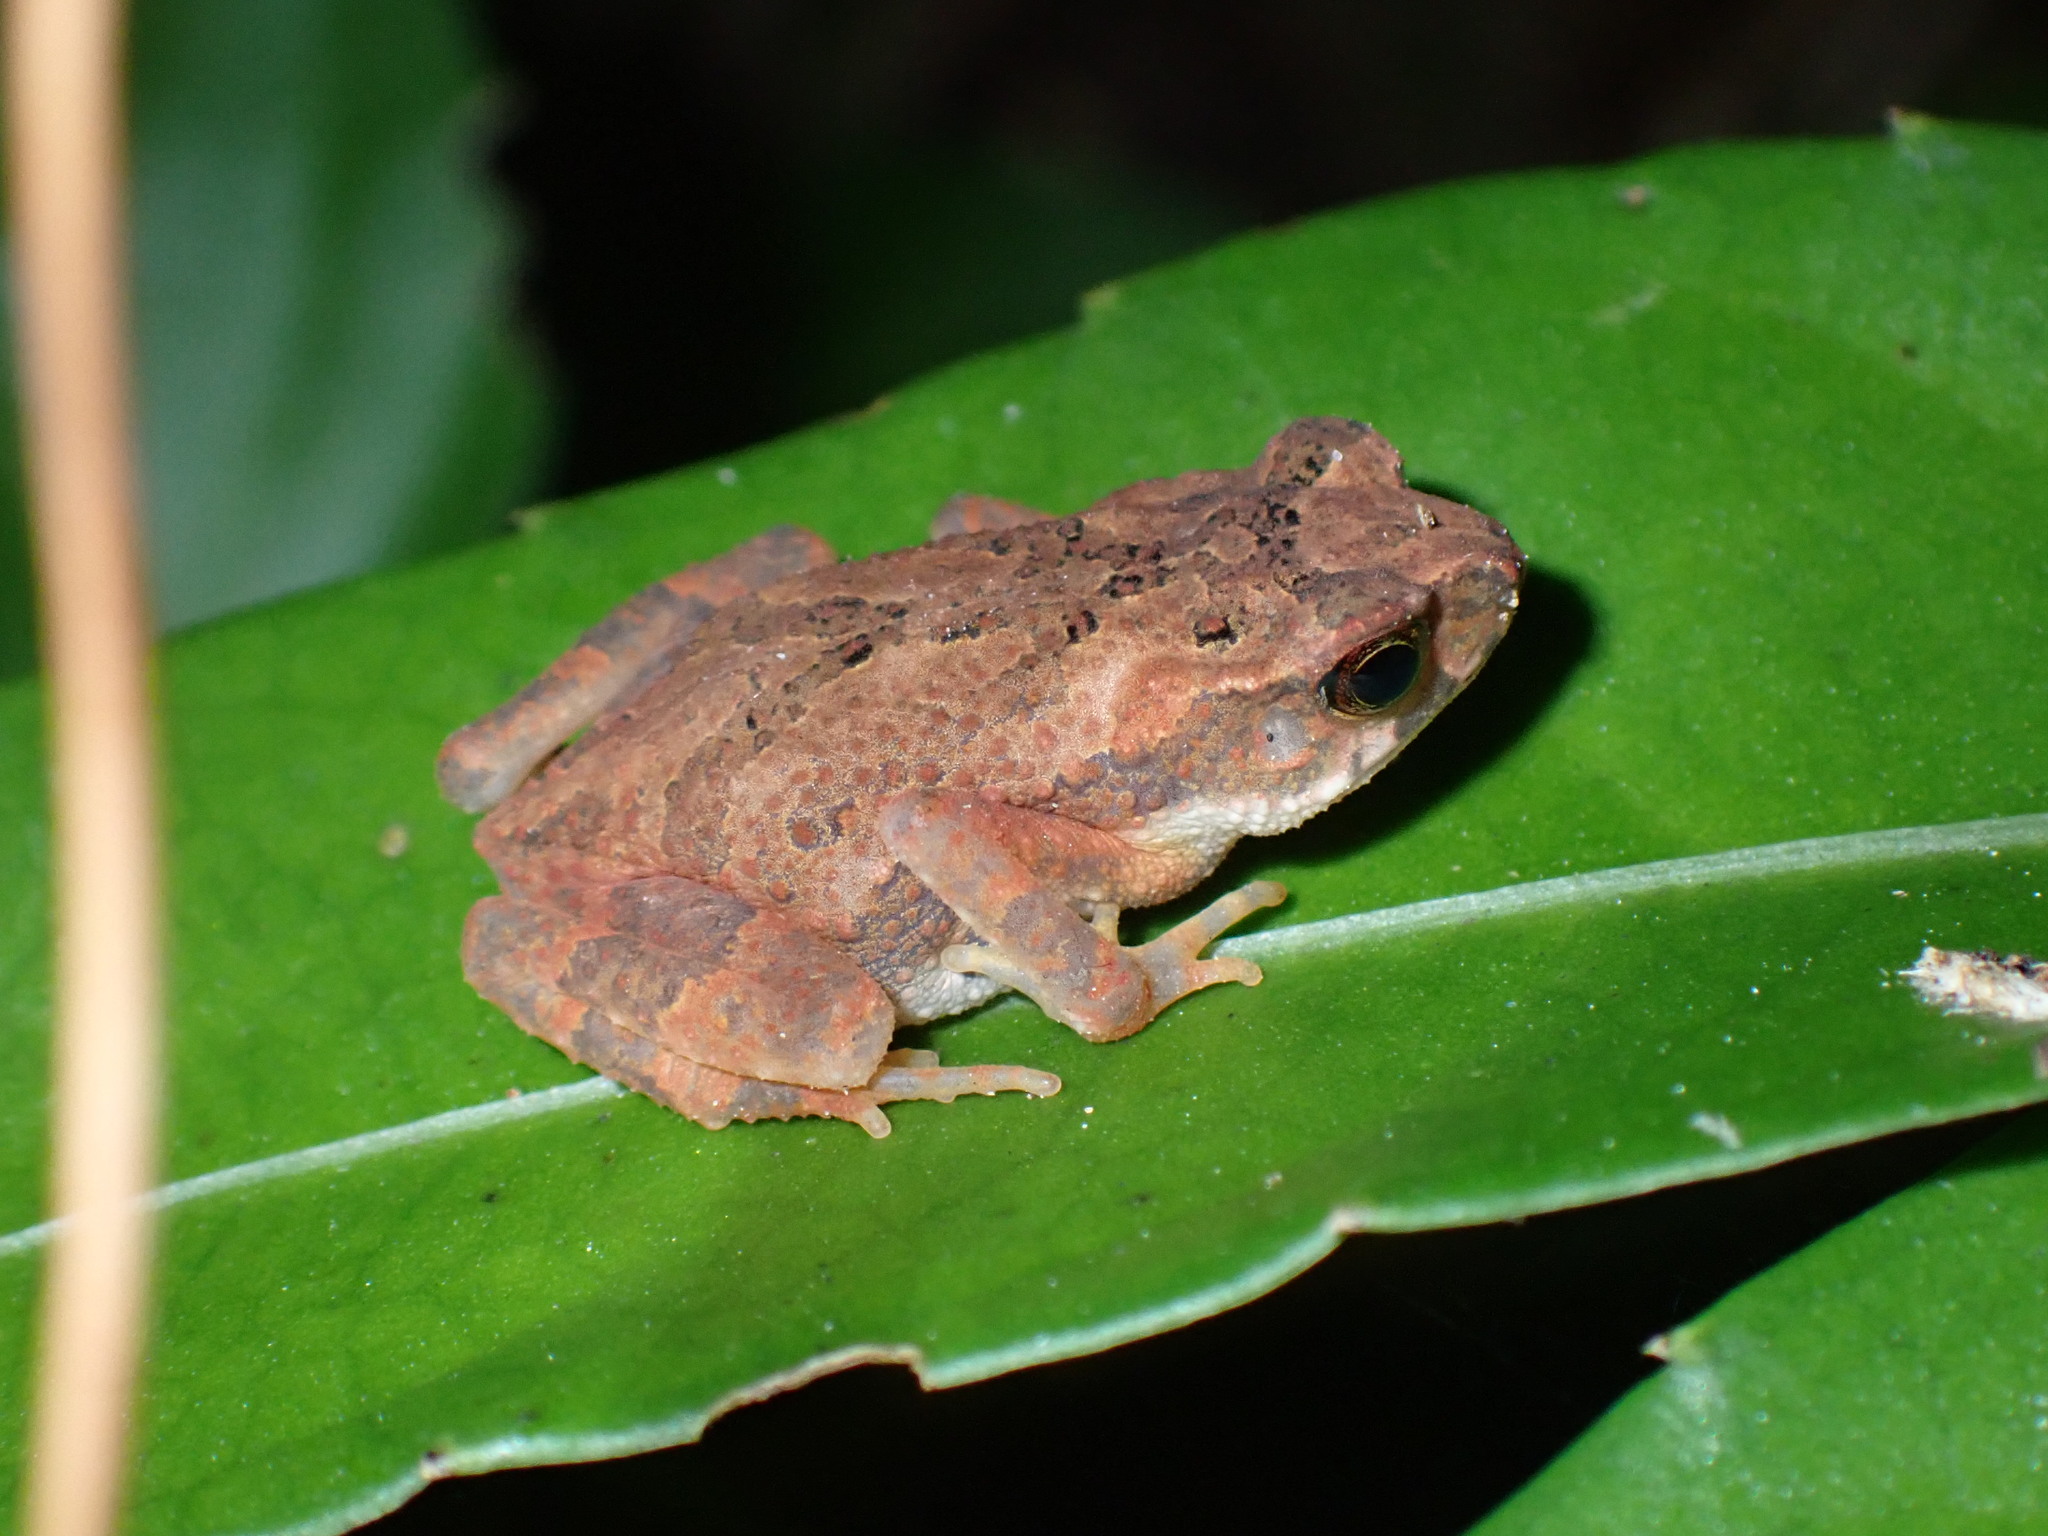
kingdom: Animalia
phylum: Chordata
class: Amphibia
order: Anura
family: Bufonidae
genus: Ingerophrynus
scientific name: Ingerophrynus parvus
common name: Dwarf lesser stream toad
